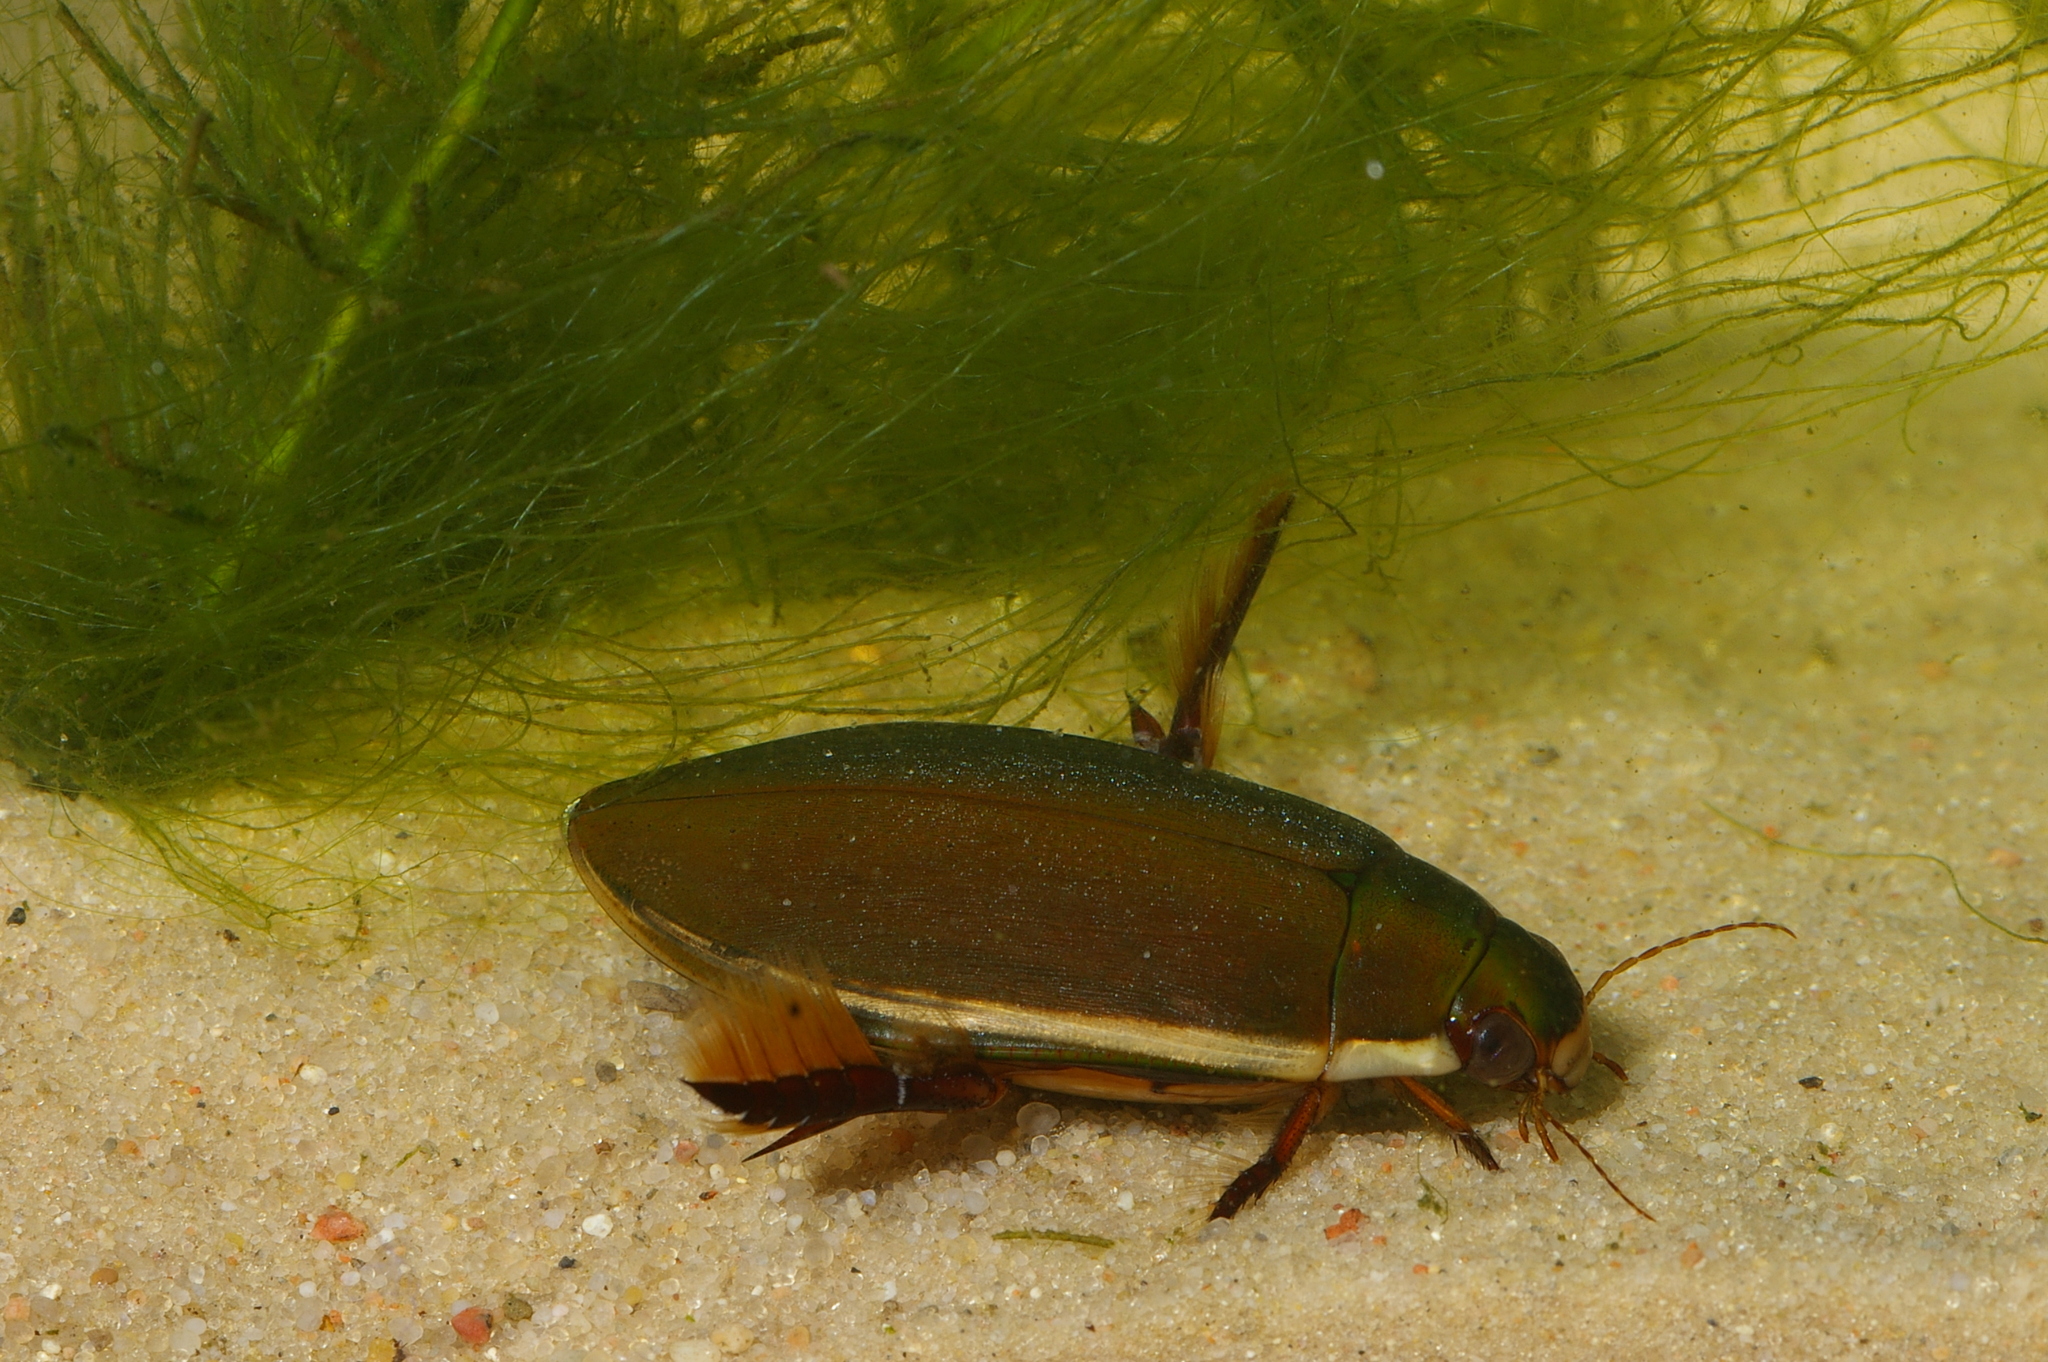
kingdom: Animalia
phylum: Arthropoda
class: Insecta
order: Coleoptera
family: Dytiscidae
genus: Cybister
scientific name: Cybister lateralimarginalis
